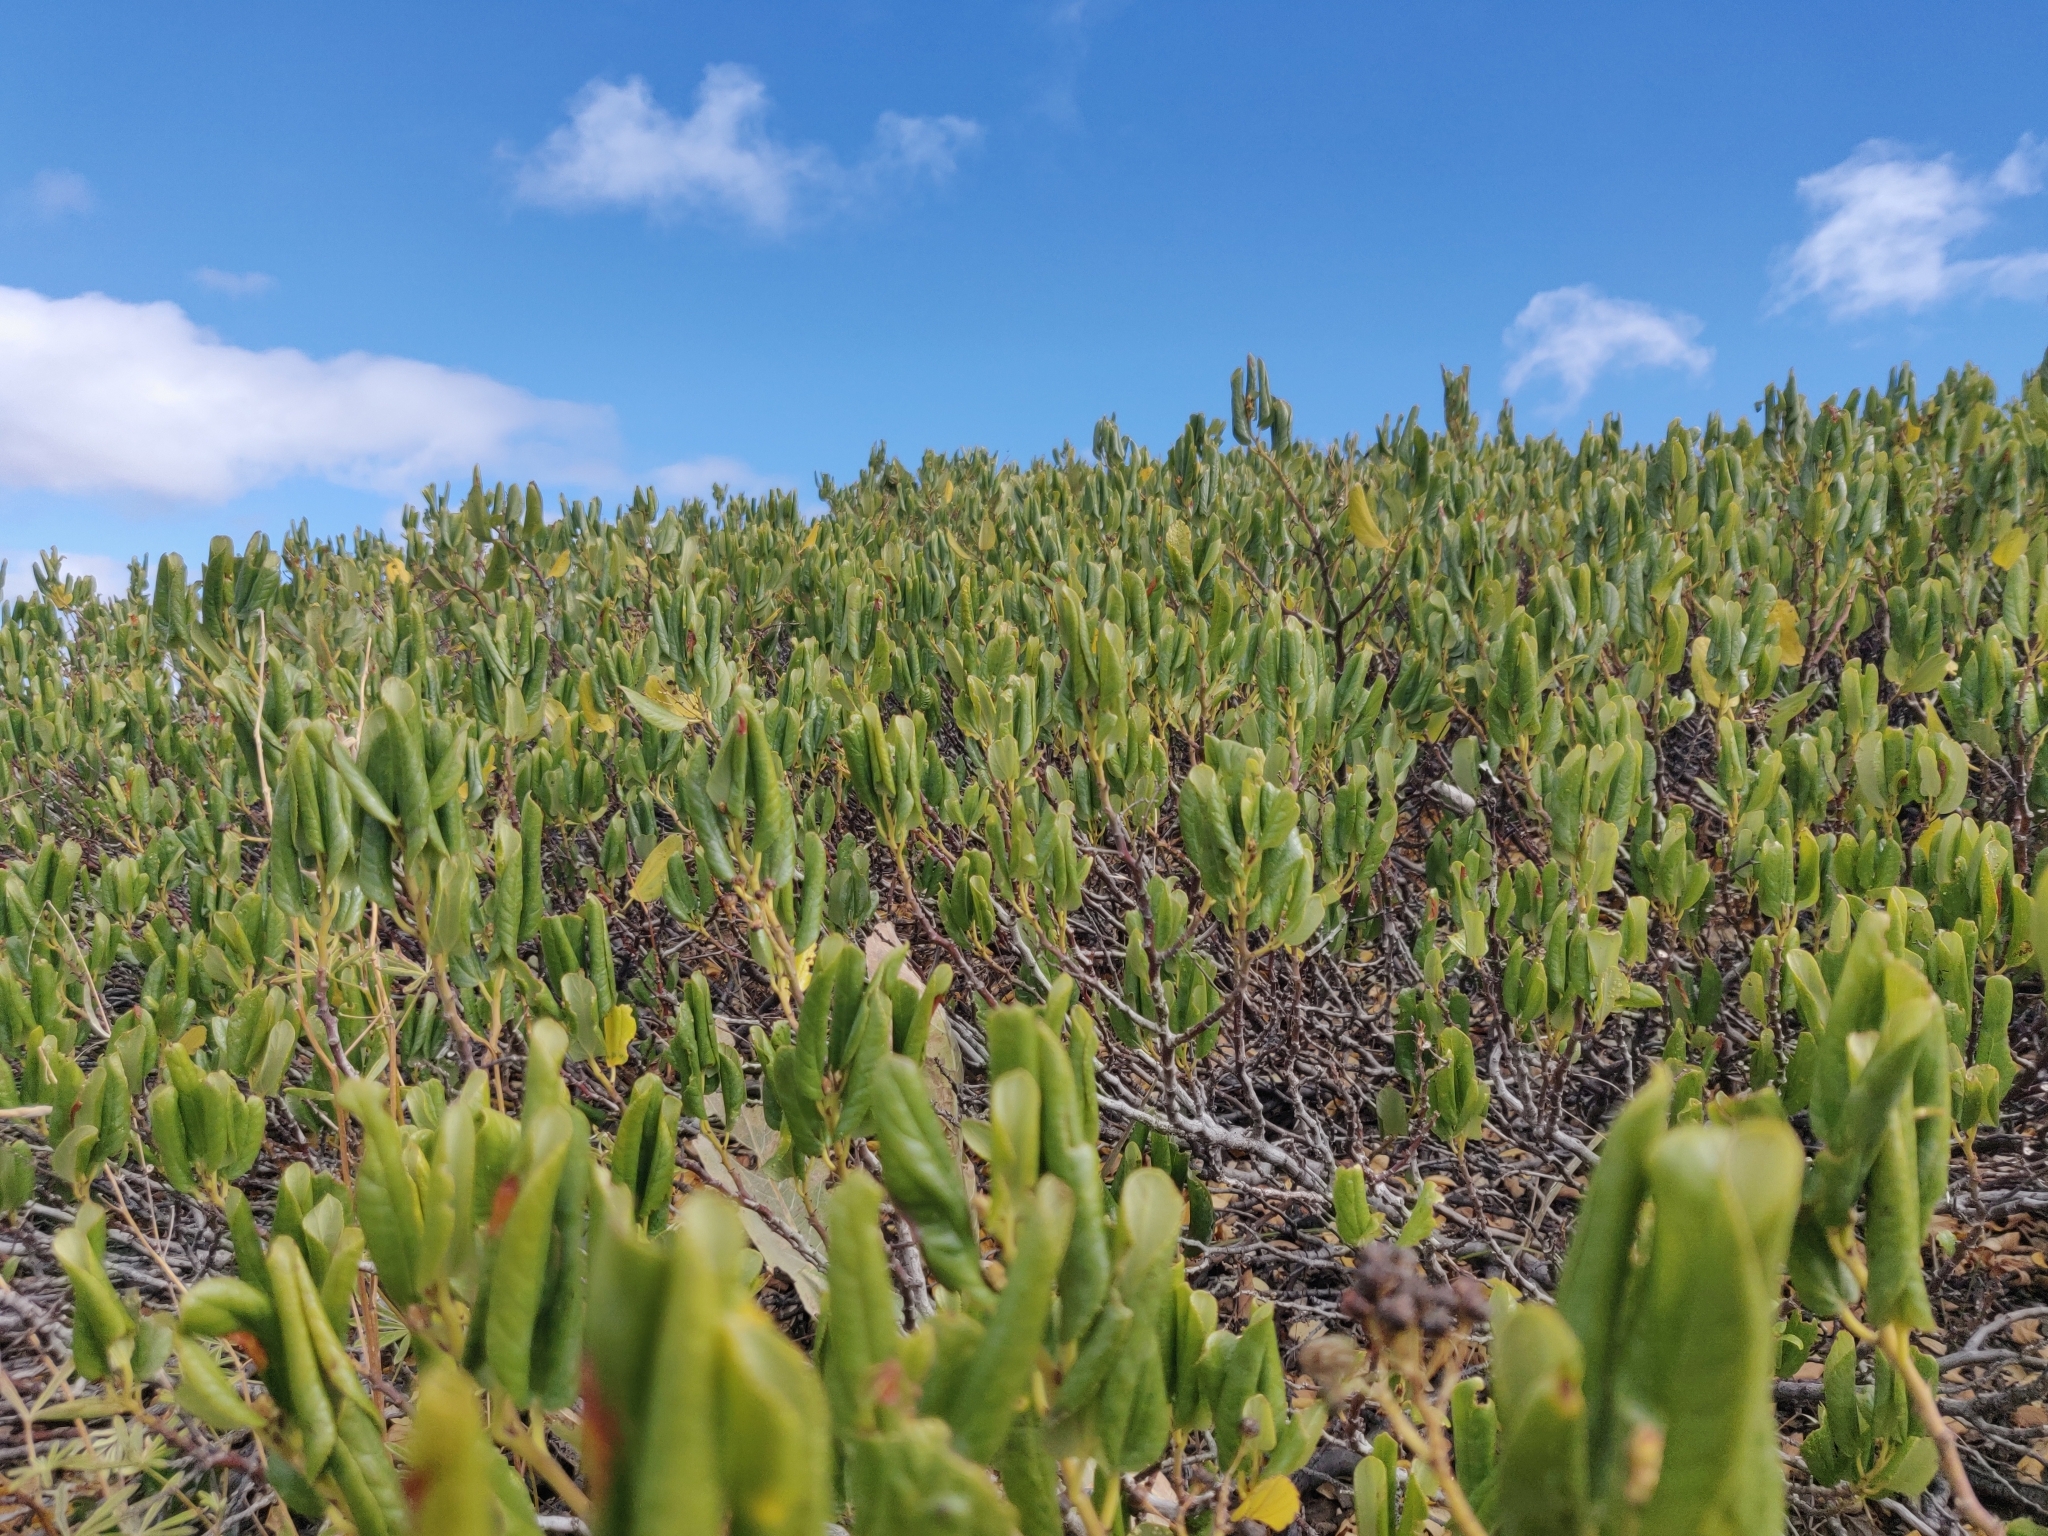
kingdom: Plantae
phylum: Tracheophyta
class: Magnoliopsida
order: Rosales
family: Rhamnaceae
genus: Ceanothus
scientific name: Ceanothus velutinus
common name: Snowbrush
